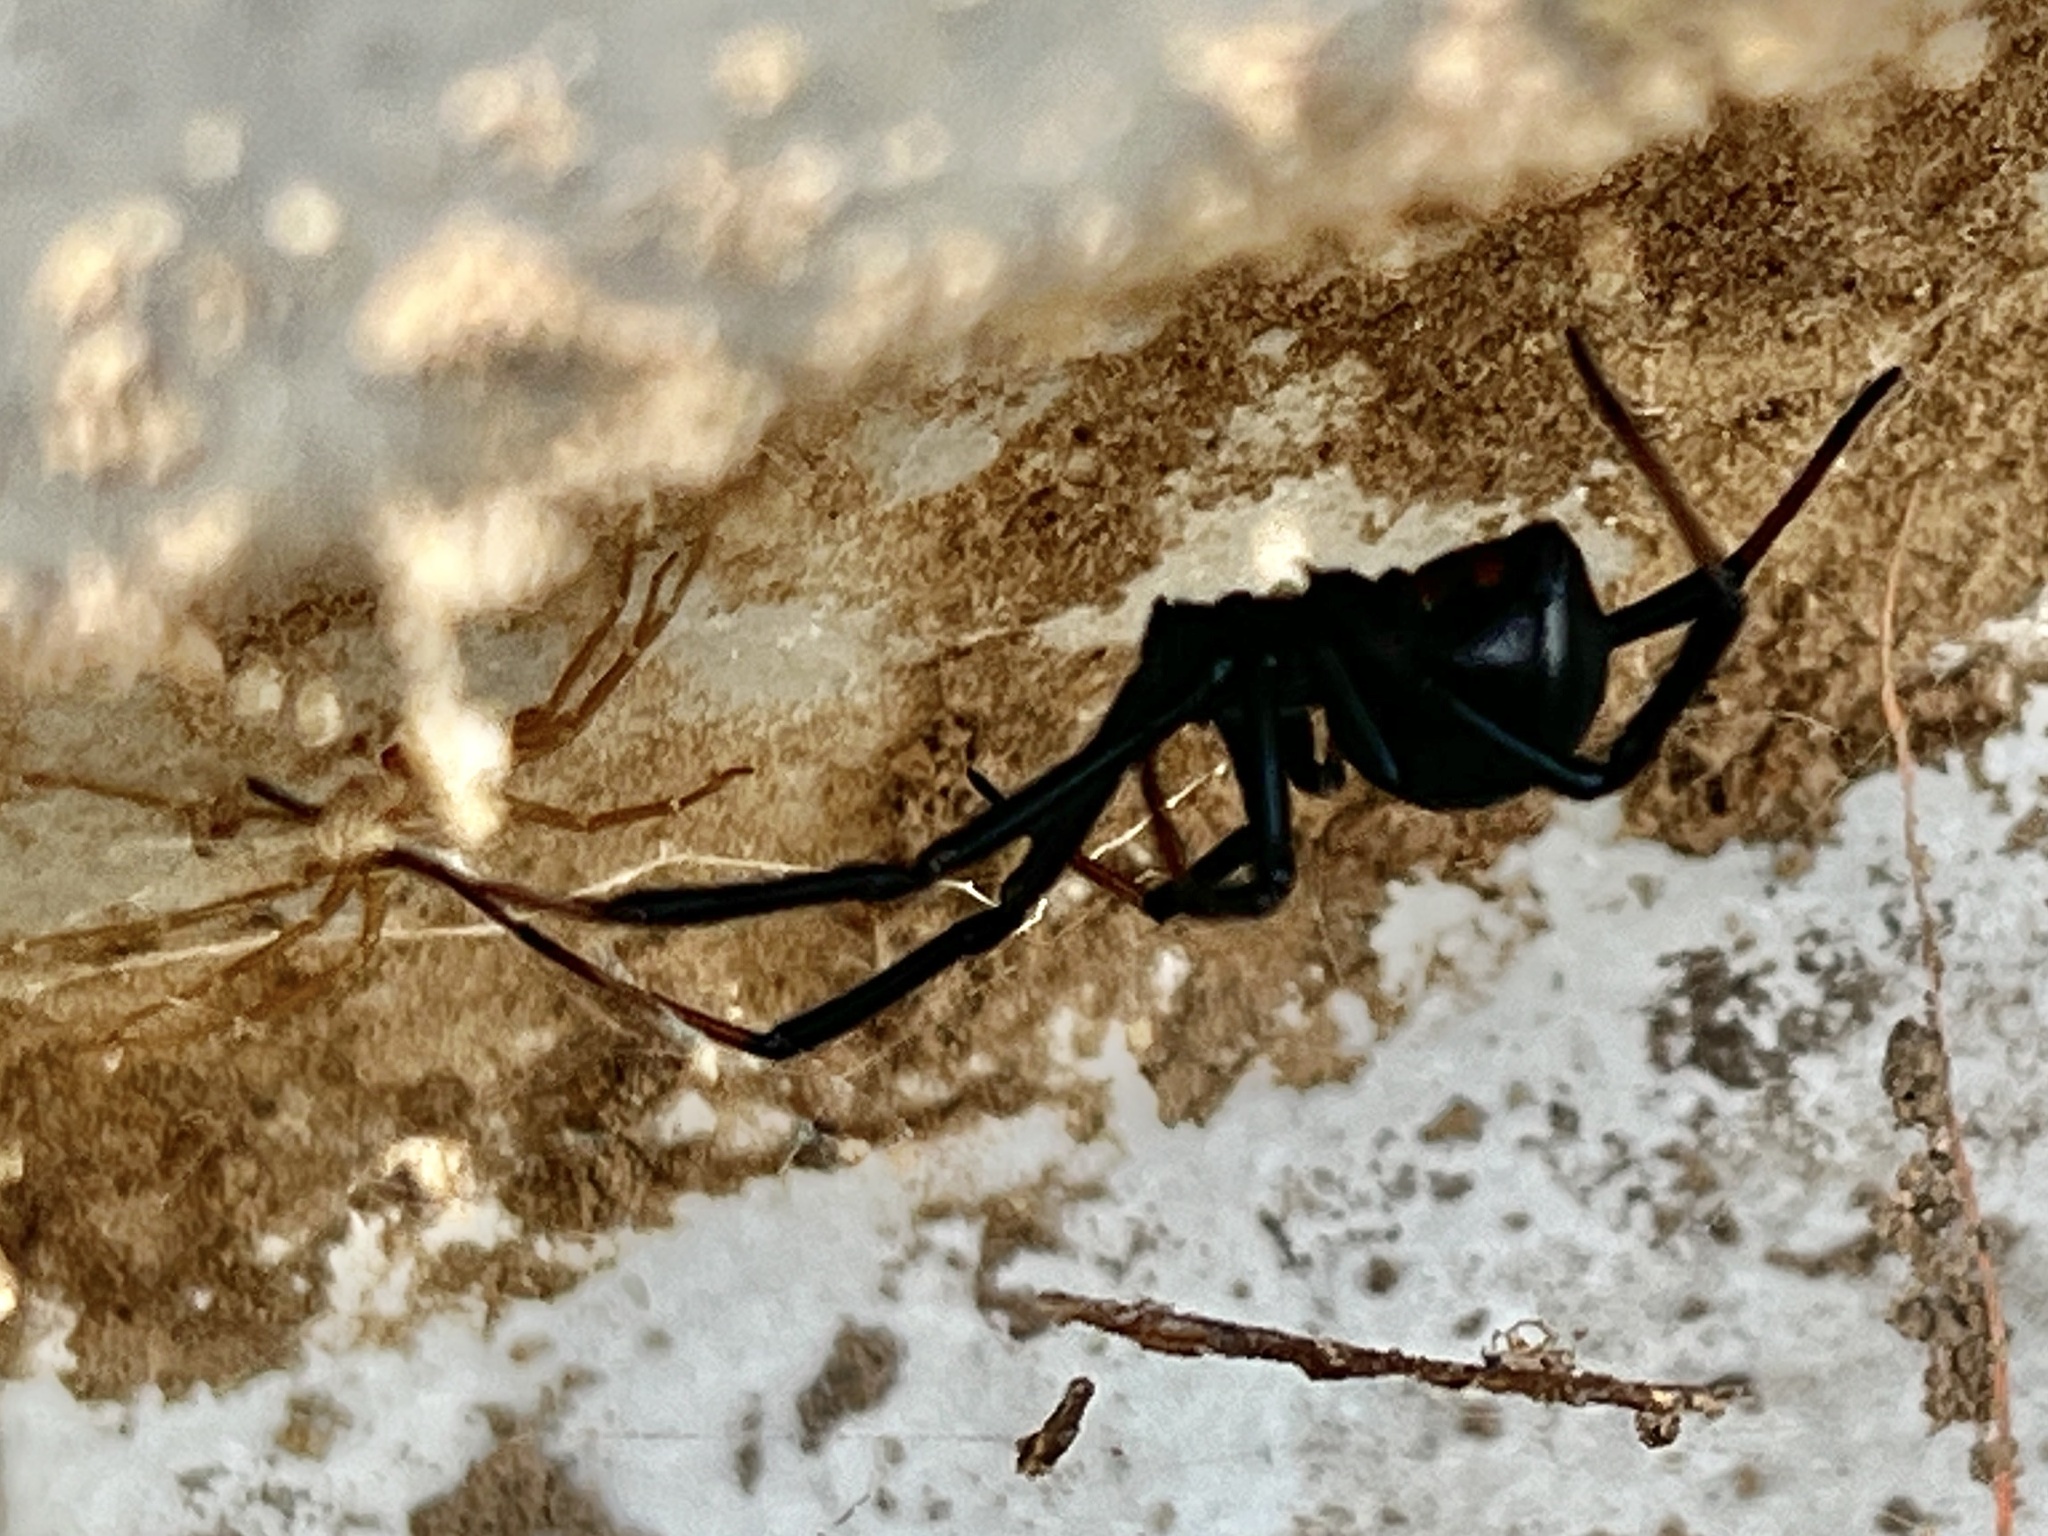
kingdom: Animalia
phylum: Arthropoda
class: Arachnida
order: Araneae
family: Theridiidae
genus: Latrodectus
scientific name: Latrodectus hesperus
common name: Western black widow
